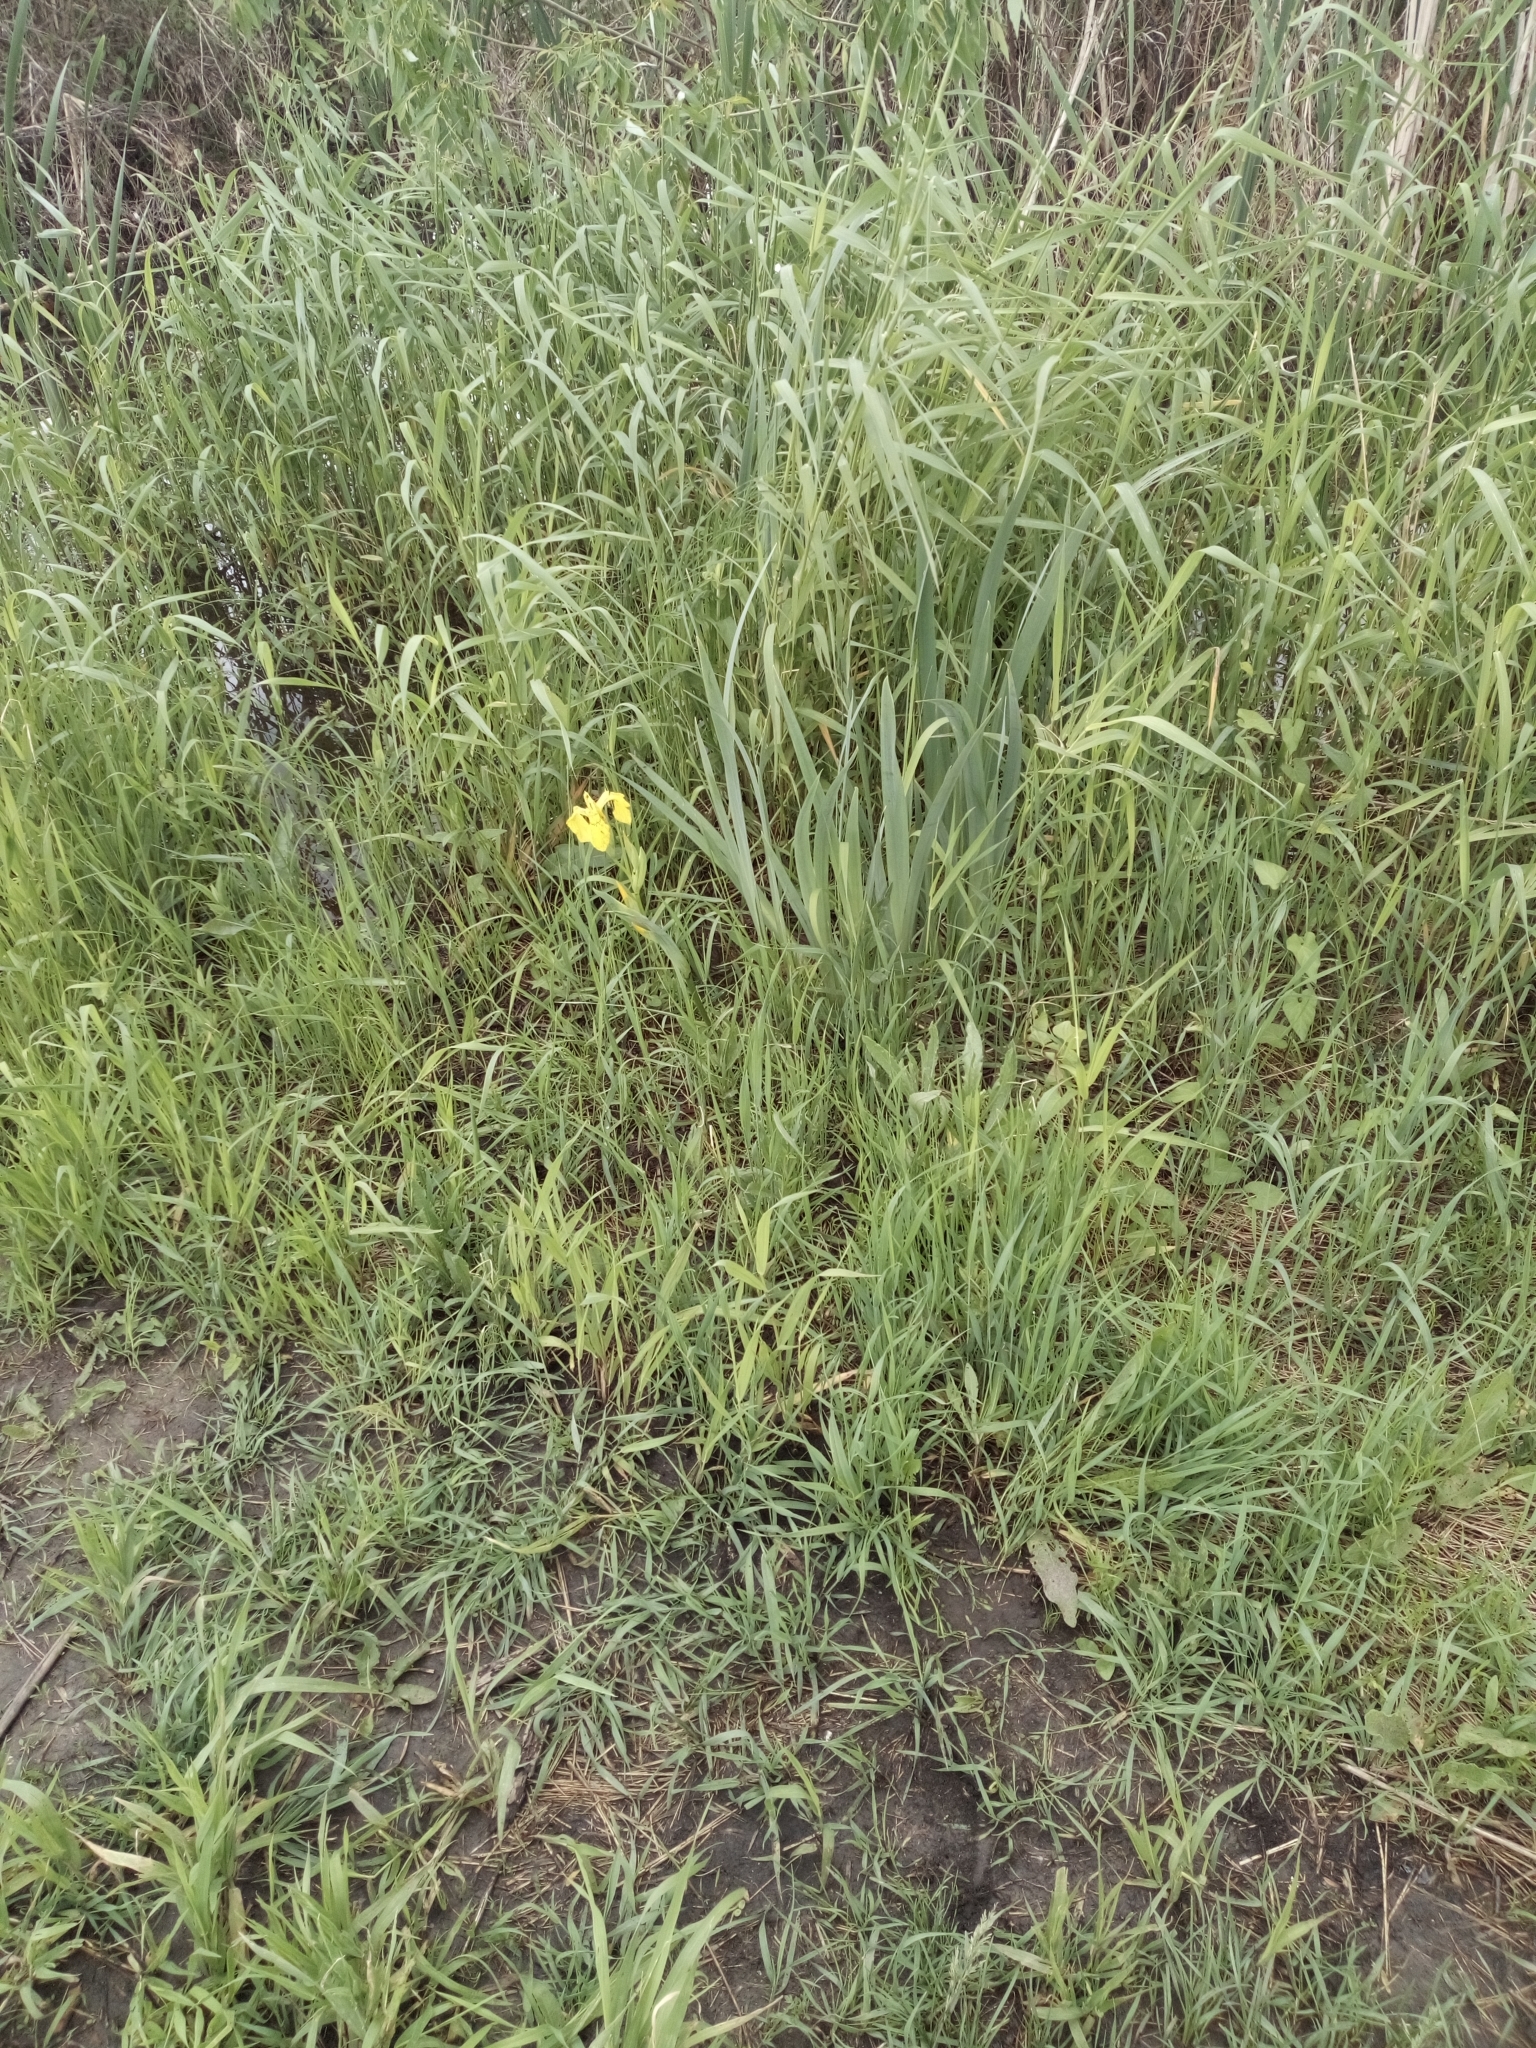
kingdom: Plantae
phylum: Tracheophyta
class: Liliopsida
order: Asparagales
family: Iridaceae
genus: Iris
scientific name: Iris pseudacorus
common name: Yellow flag
